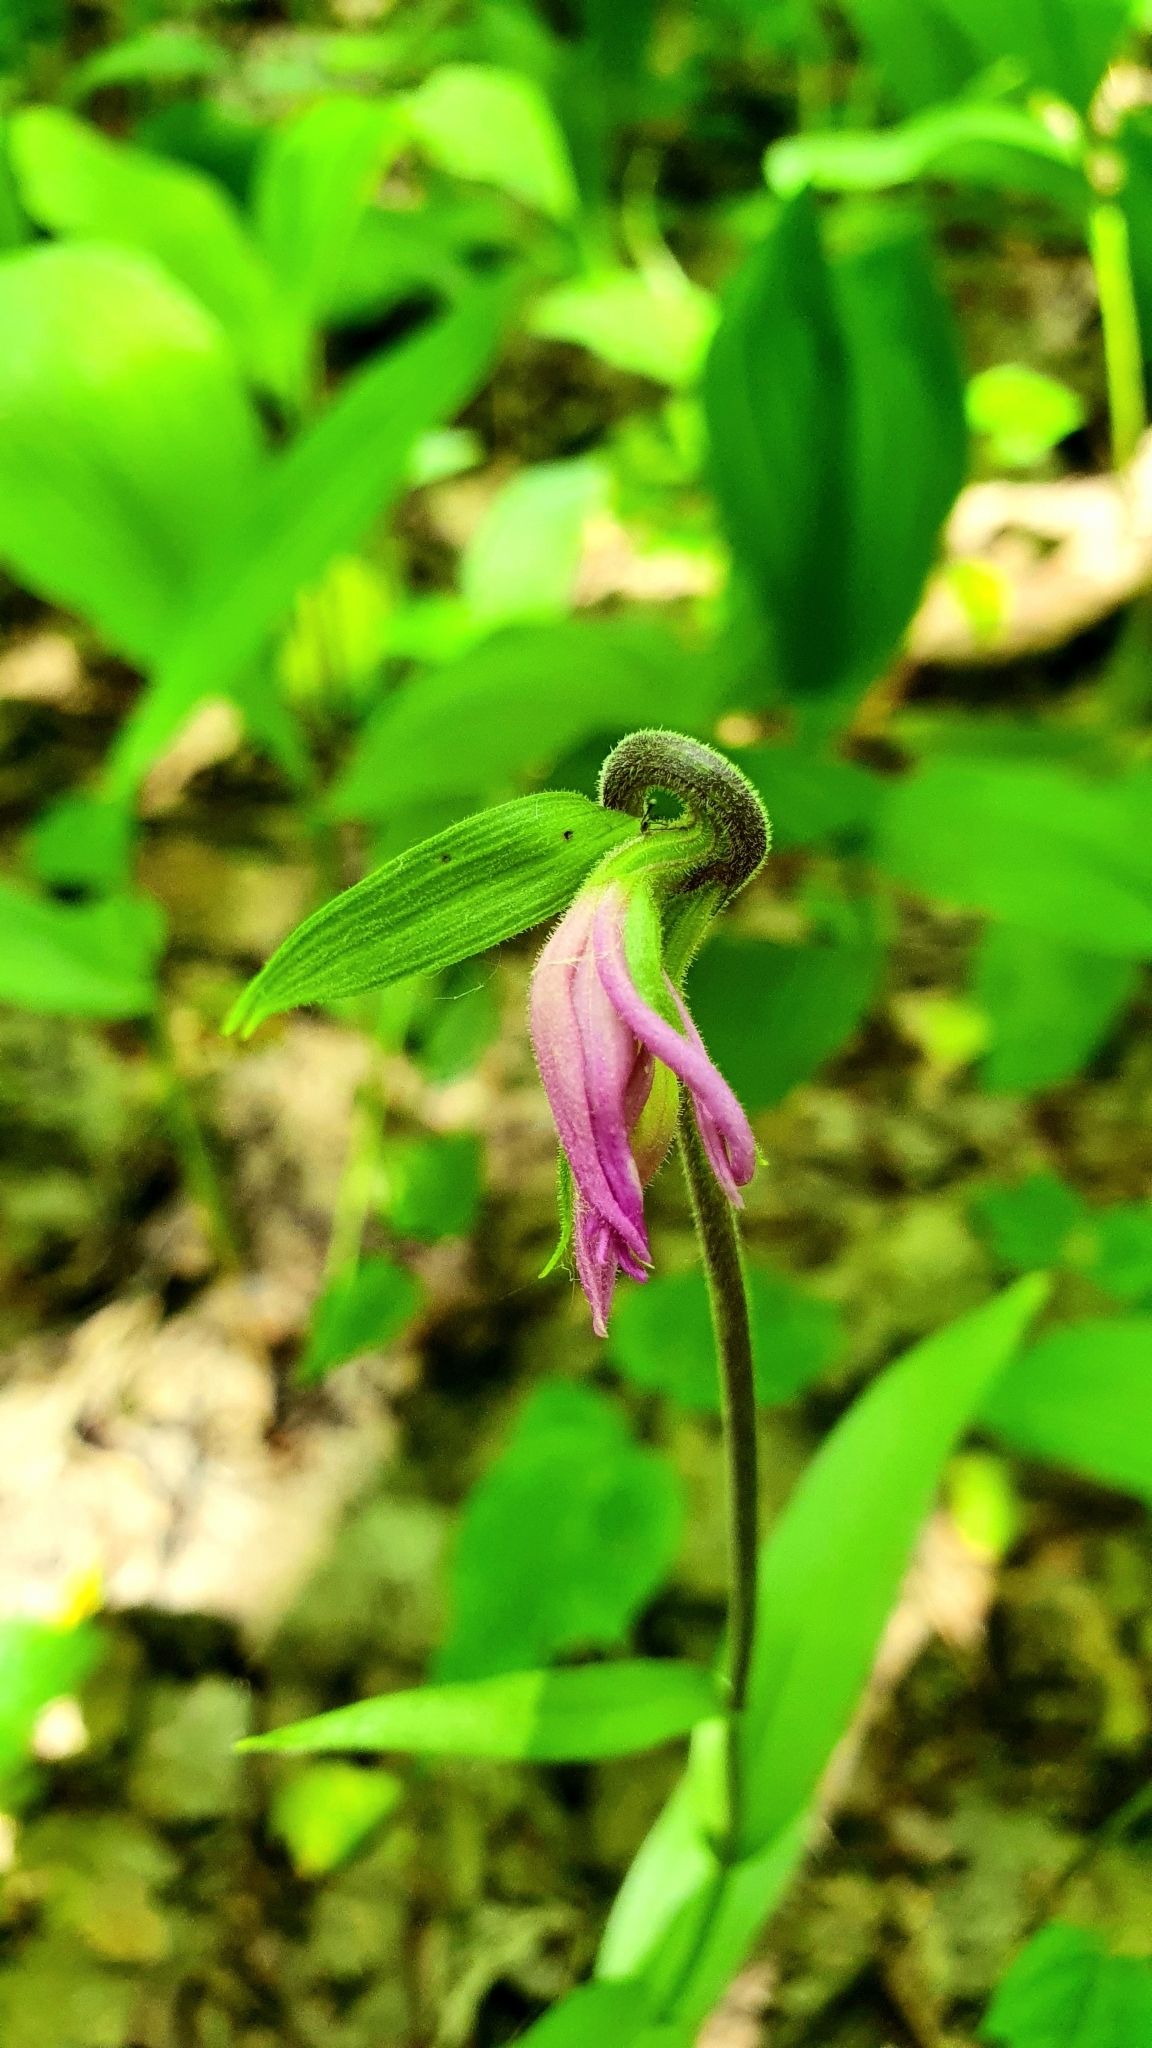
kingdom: Plantae
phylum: Tracheophyta
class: Liliopsida
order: Asparagales
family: Orchidaceae
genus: Cephalanthera
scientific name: Cephalanthera rubra
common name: Red helleborine
